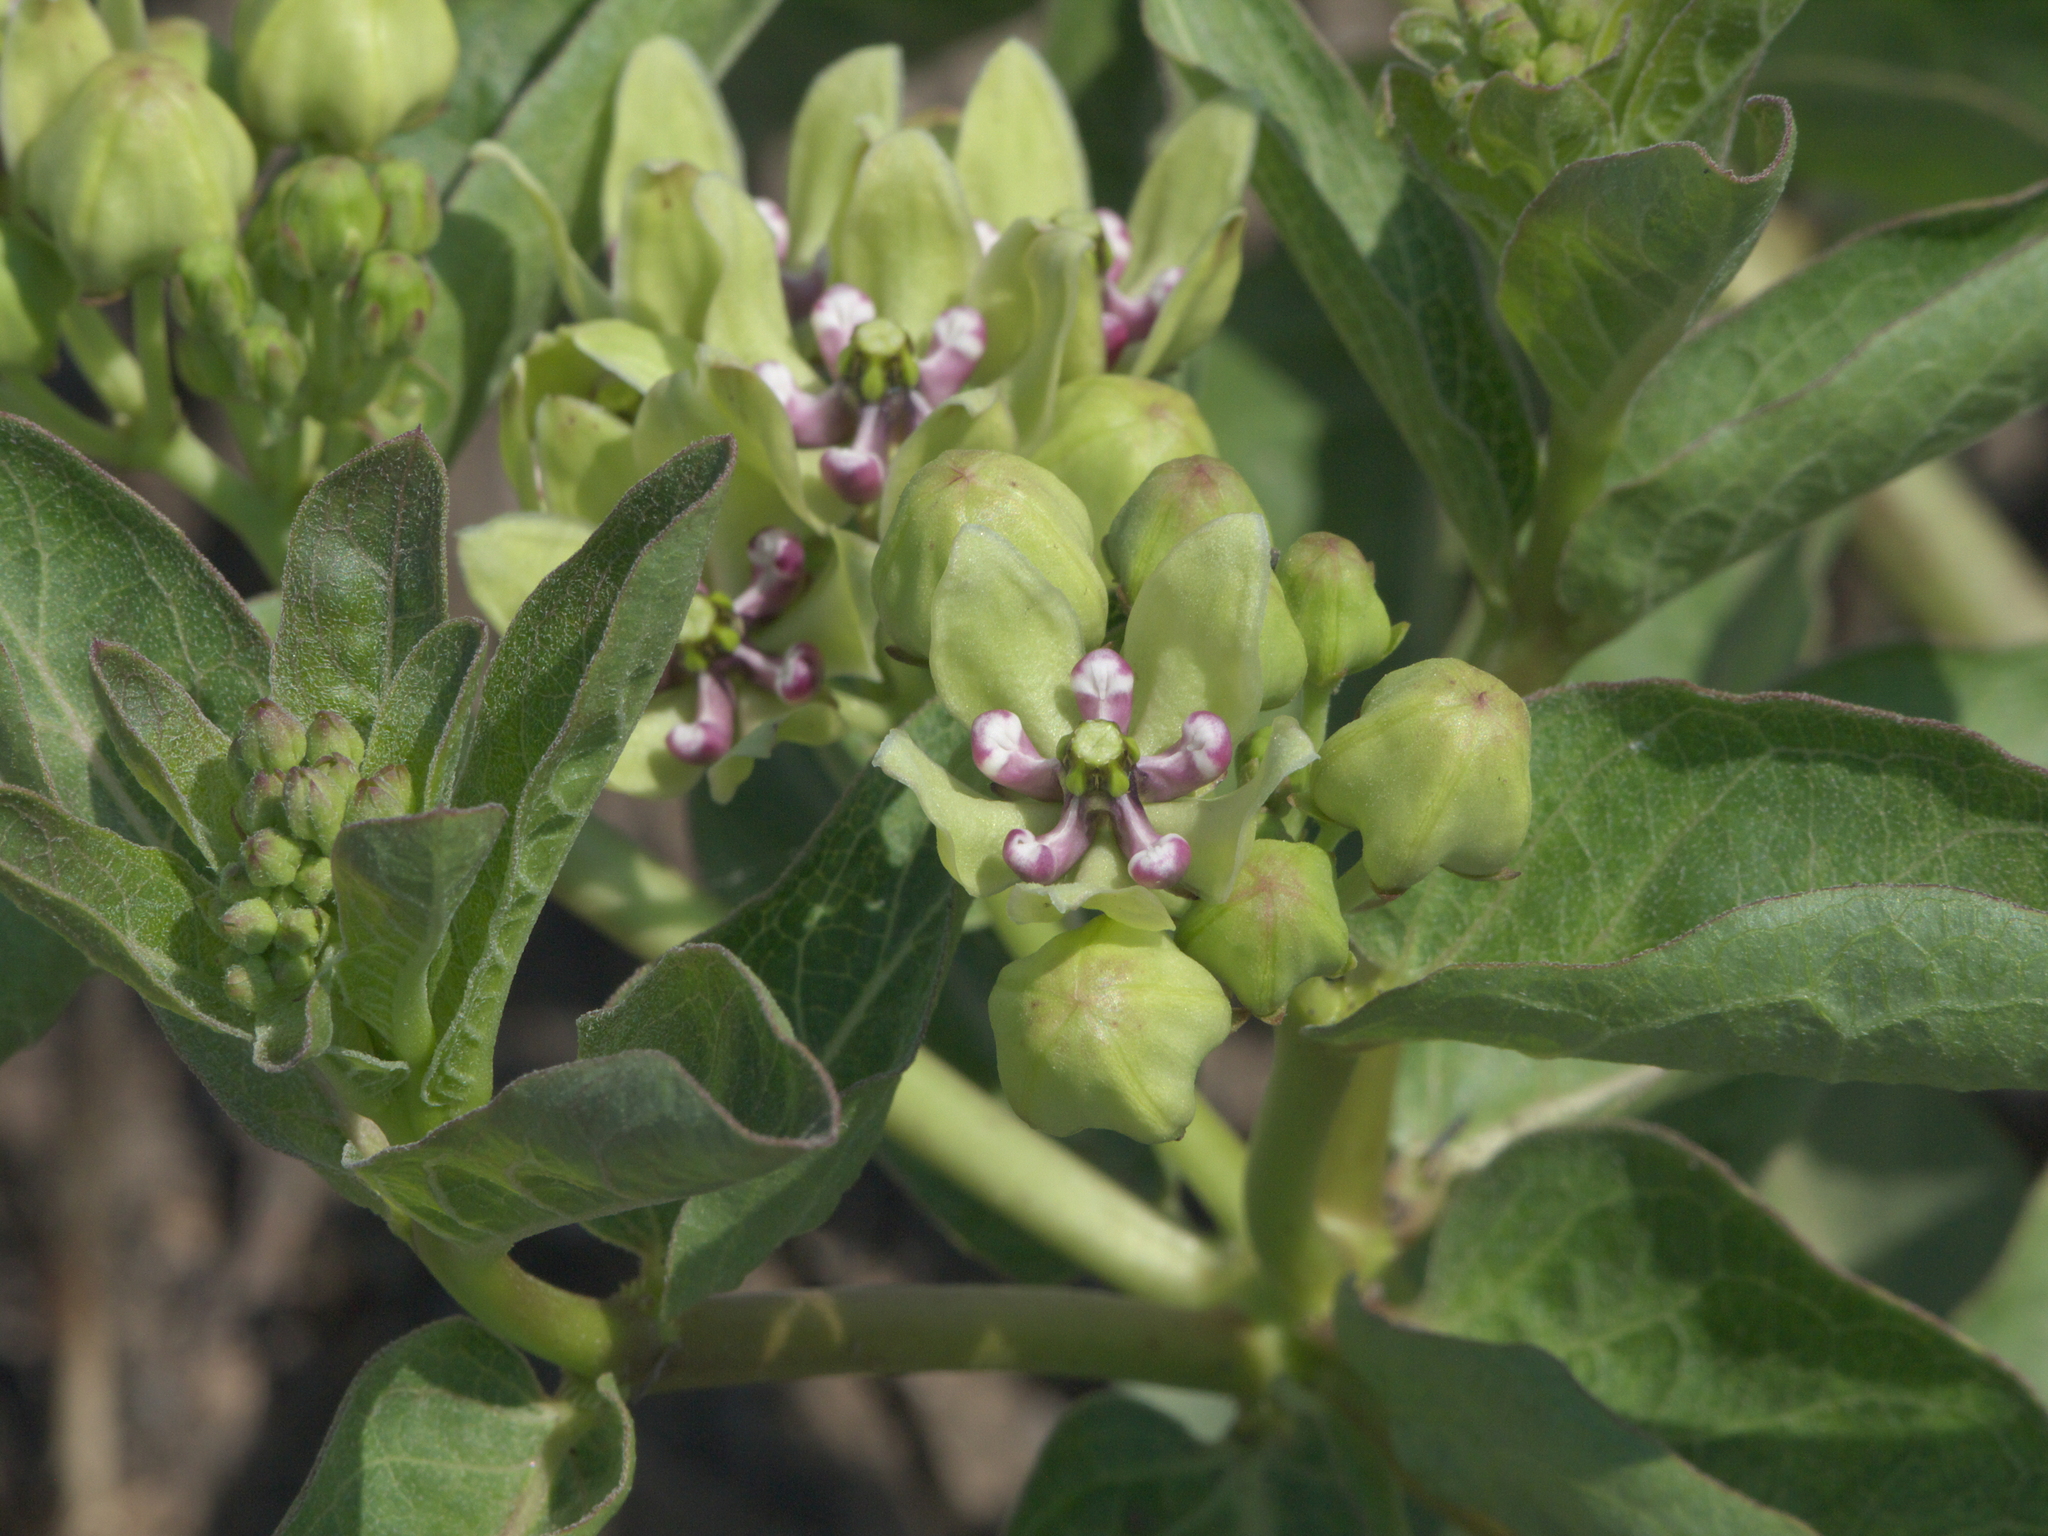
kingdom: Plantae
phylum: Tracheophyta
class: Magnoliopsida
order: Gentianales
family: Apocynaceae
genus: Asclepias
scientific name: Asclepias viridis
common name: Antelope-horns
